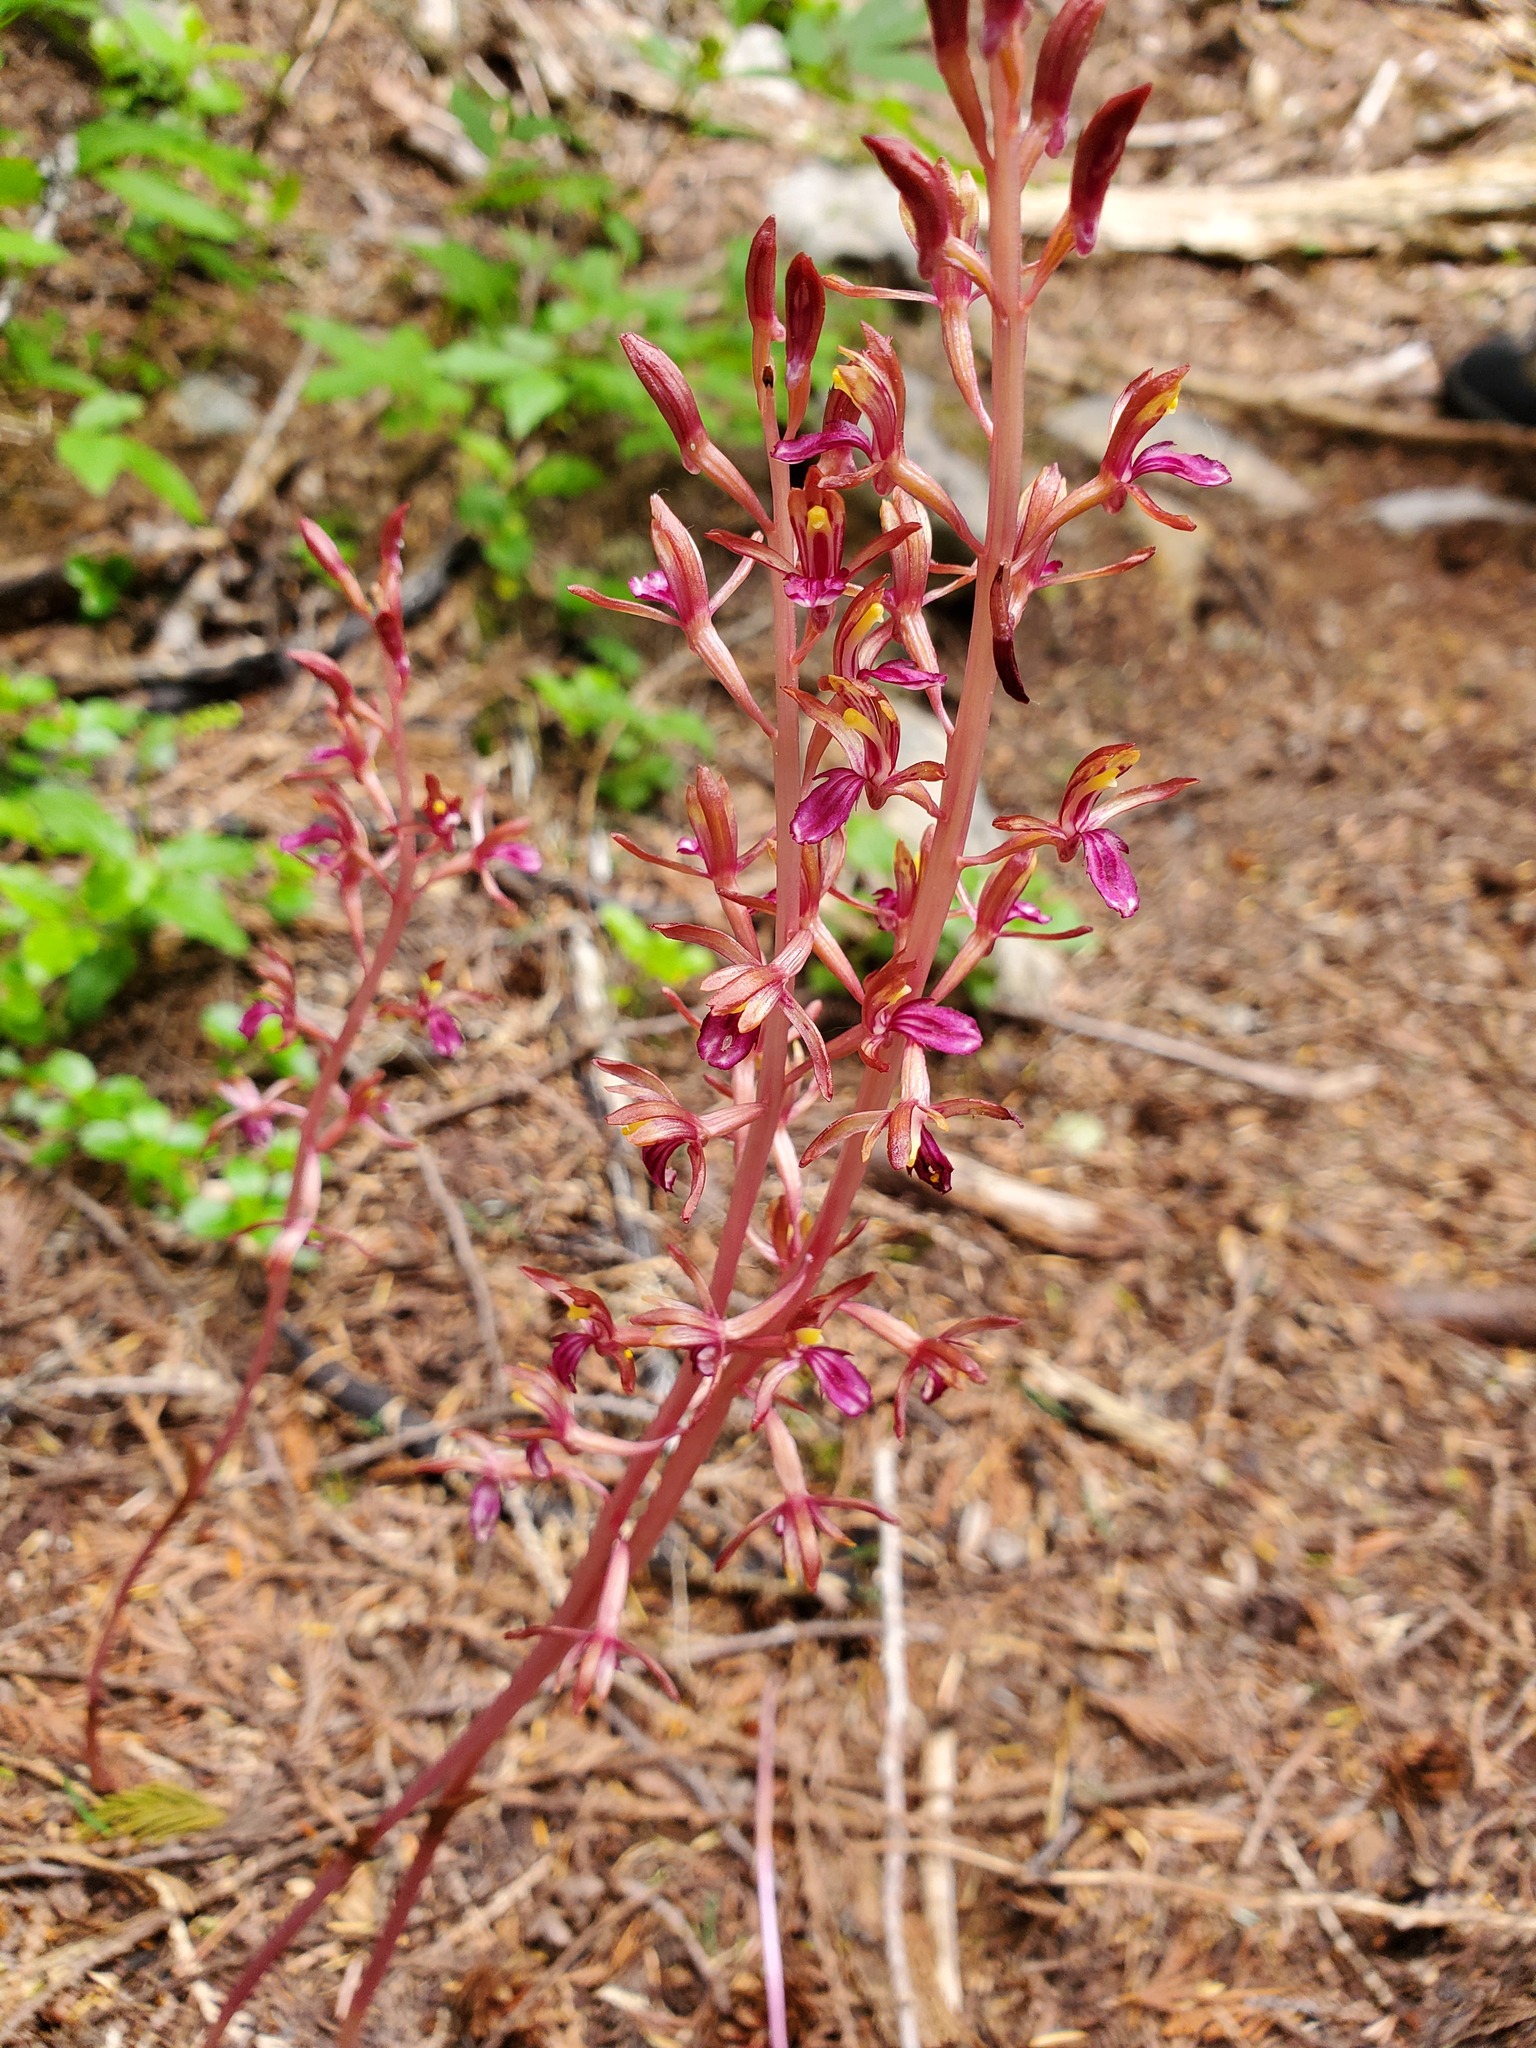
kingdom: Plantae
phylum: Tracheophyta
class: Liliopsida
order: Asparagales
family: Orchidaceae
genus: Corallorhiza
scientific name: Corallorhiza mertensiana
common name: Pacific coralroot
